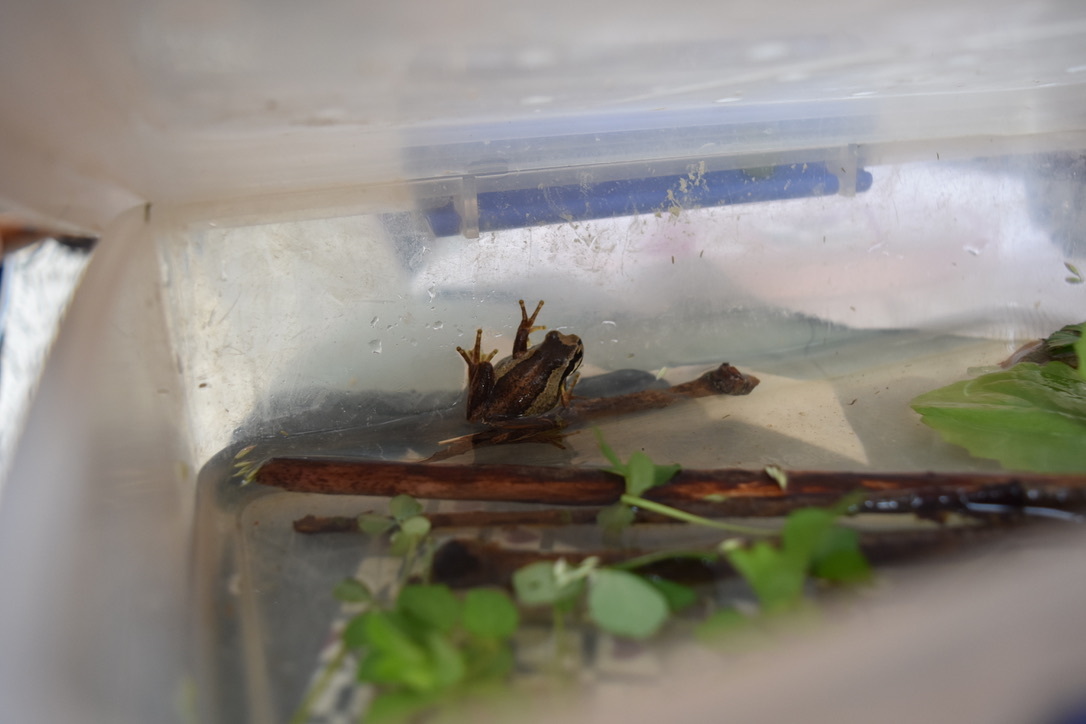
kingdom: Animalia
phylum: Chordata
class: Amphibia
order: Anura
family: Pelodryadidae
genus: Litoria
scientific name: Litoria ewingii
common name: Southern brown tree frog
